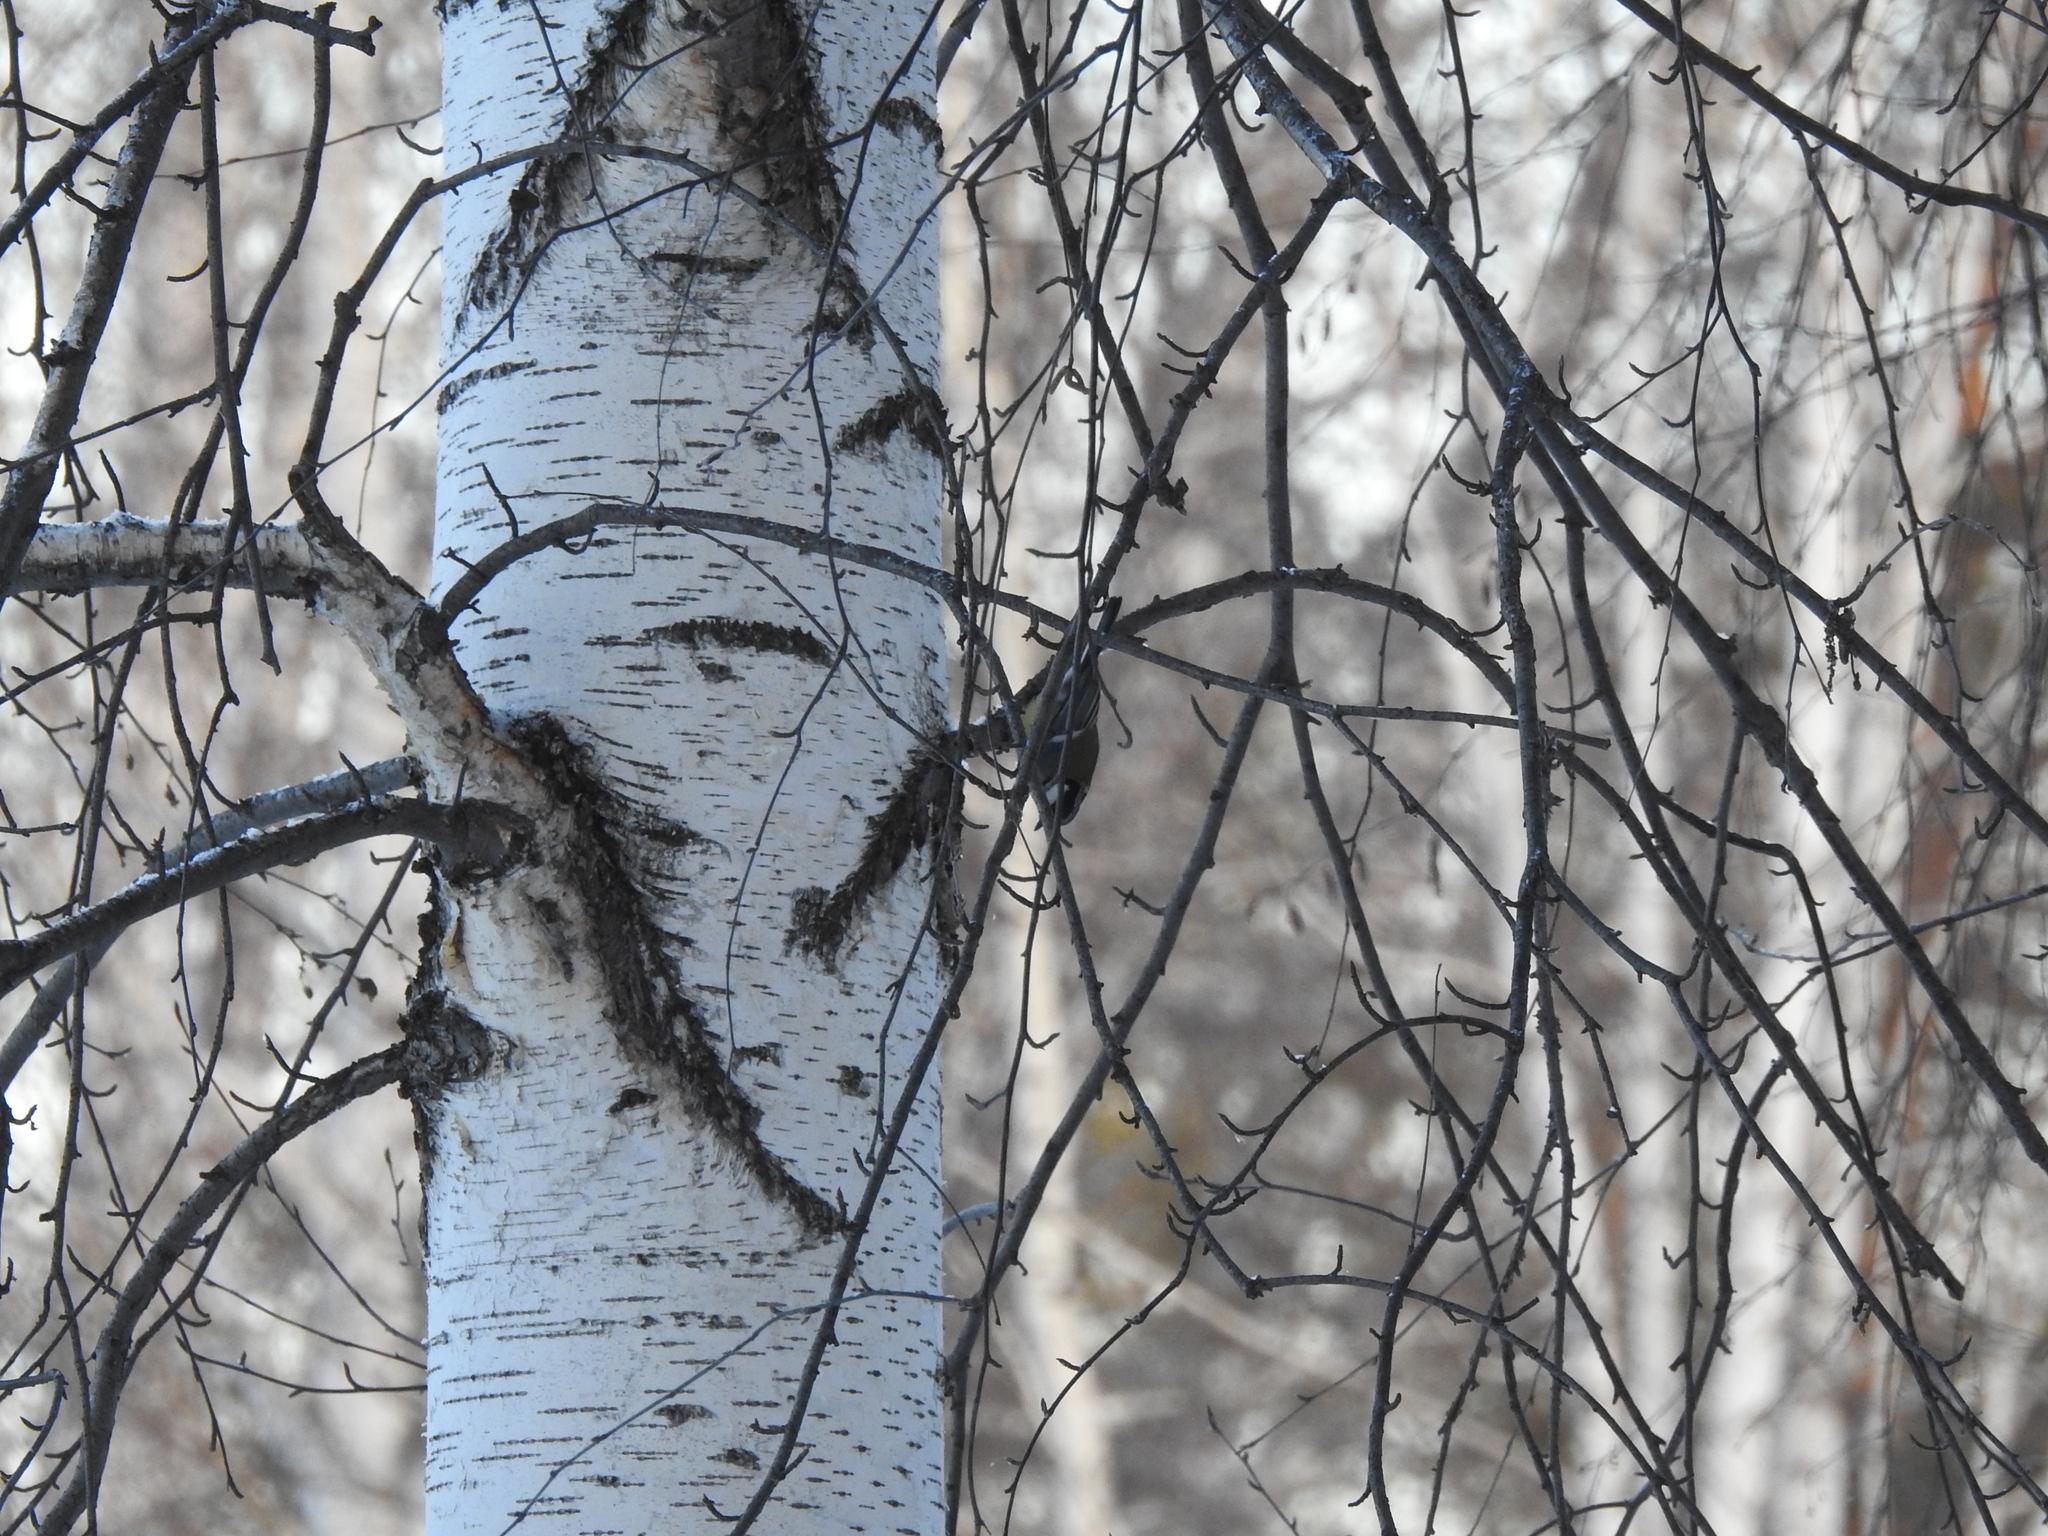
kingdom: Animalia
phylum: Chordata
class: Aves
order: Passeriformes
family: Paridae
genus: Parus
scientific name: Parus major
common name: Great tit
